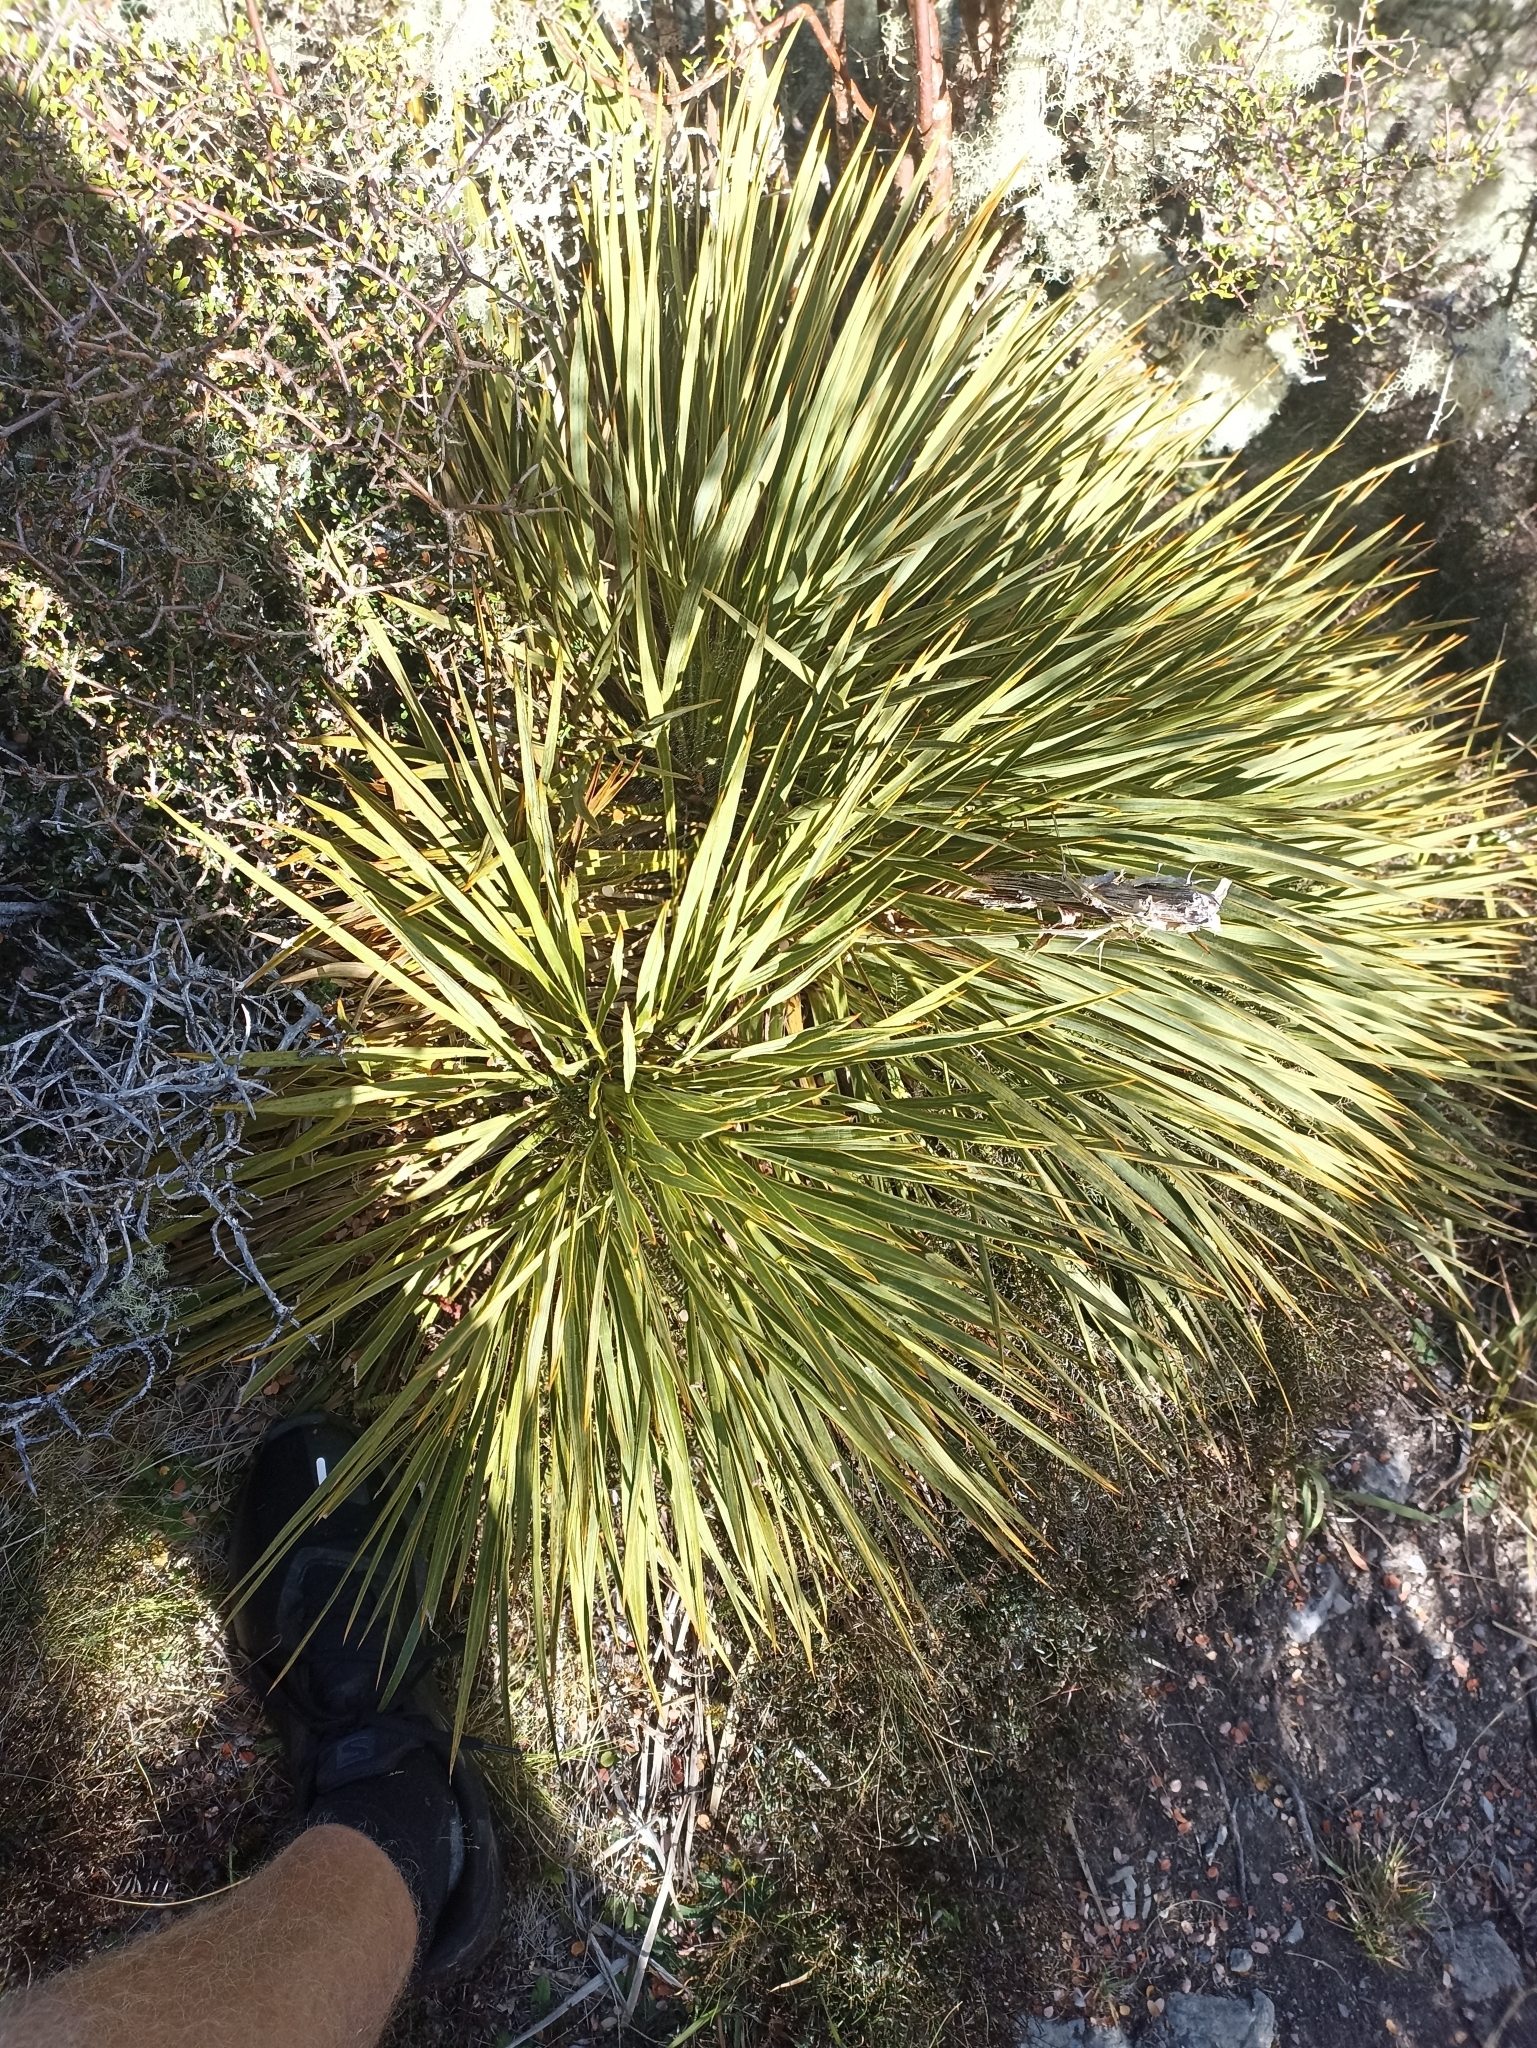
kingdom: Plantae
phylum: Tracheophyta
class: Magnoliopsida
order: Apiales
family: Apiaceae
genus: Aciphylla
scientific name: Aciphylla aurea
